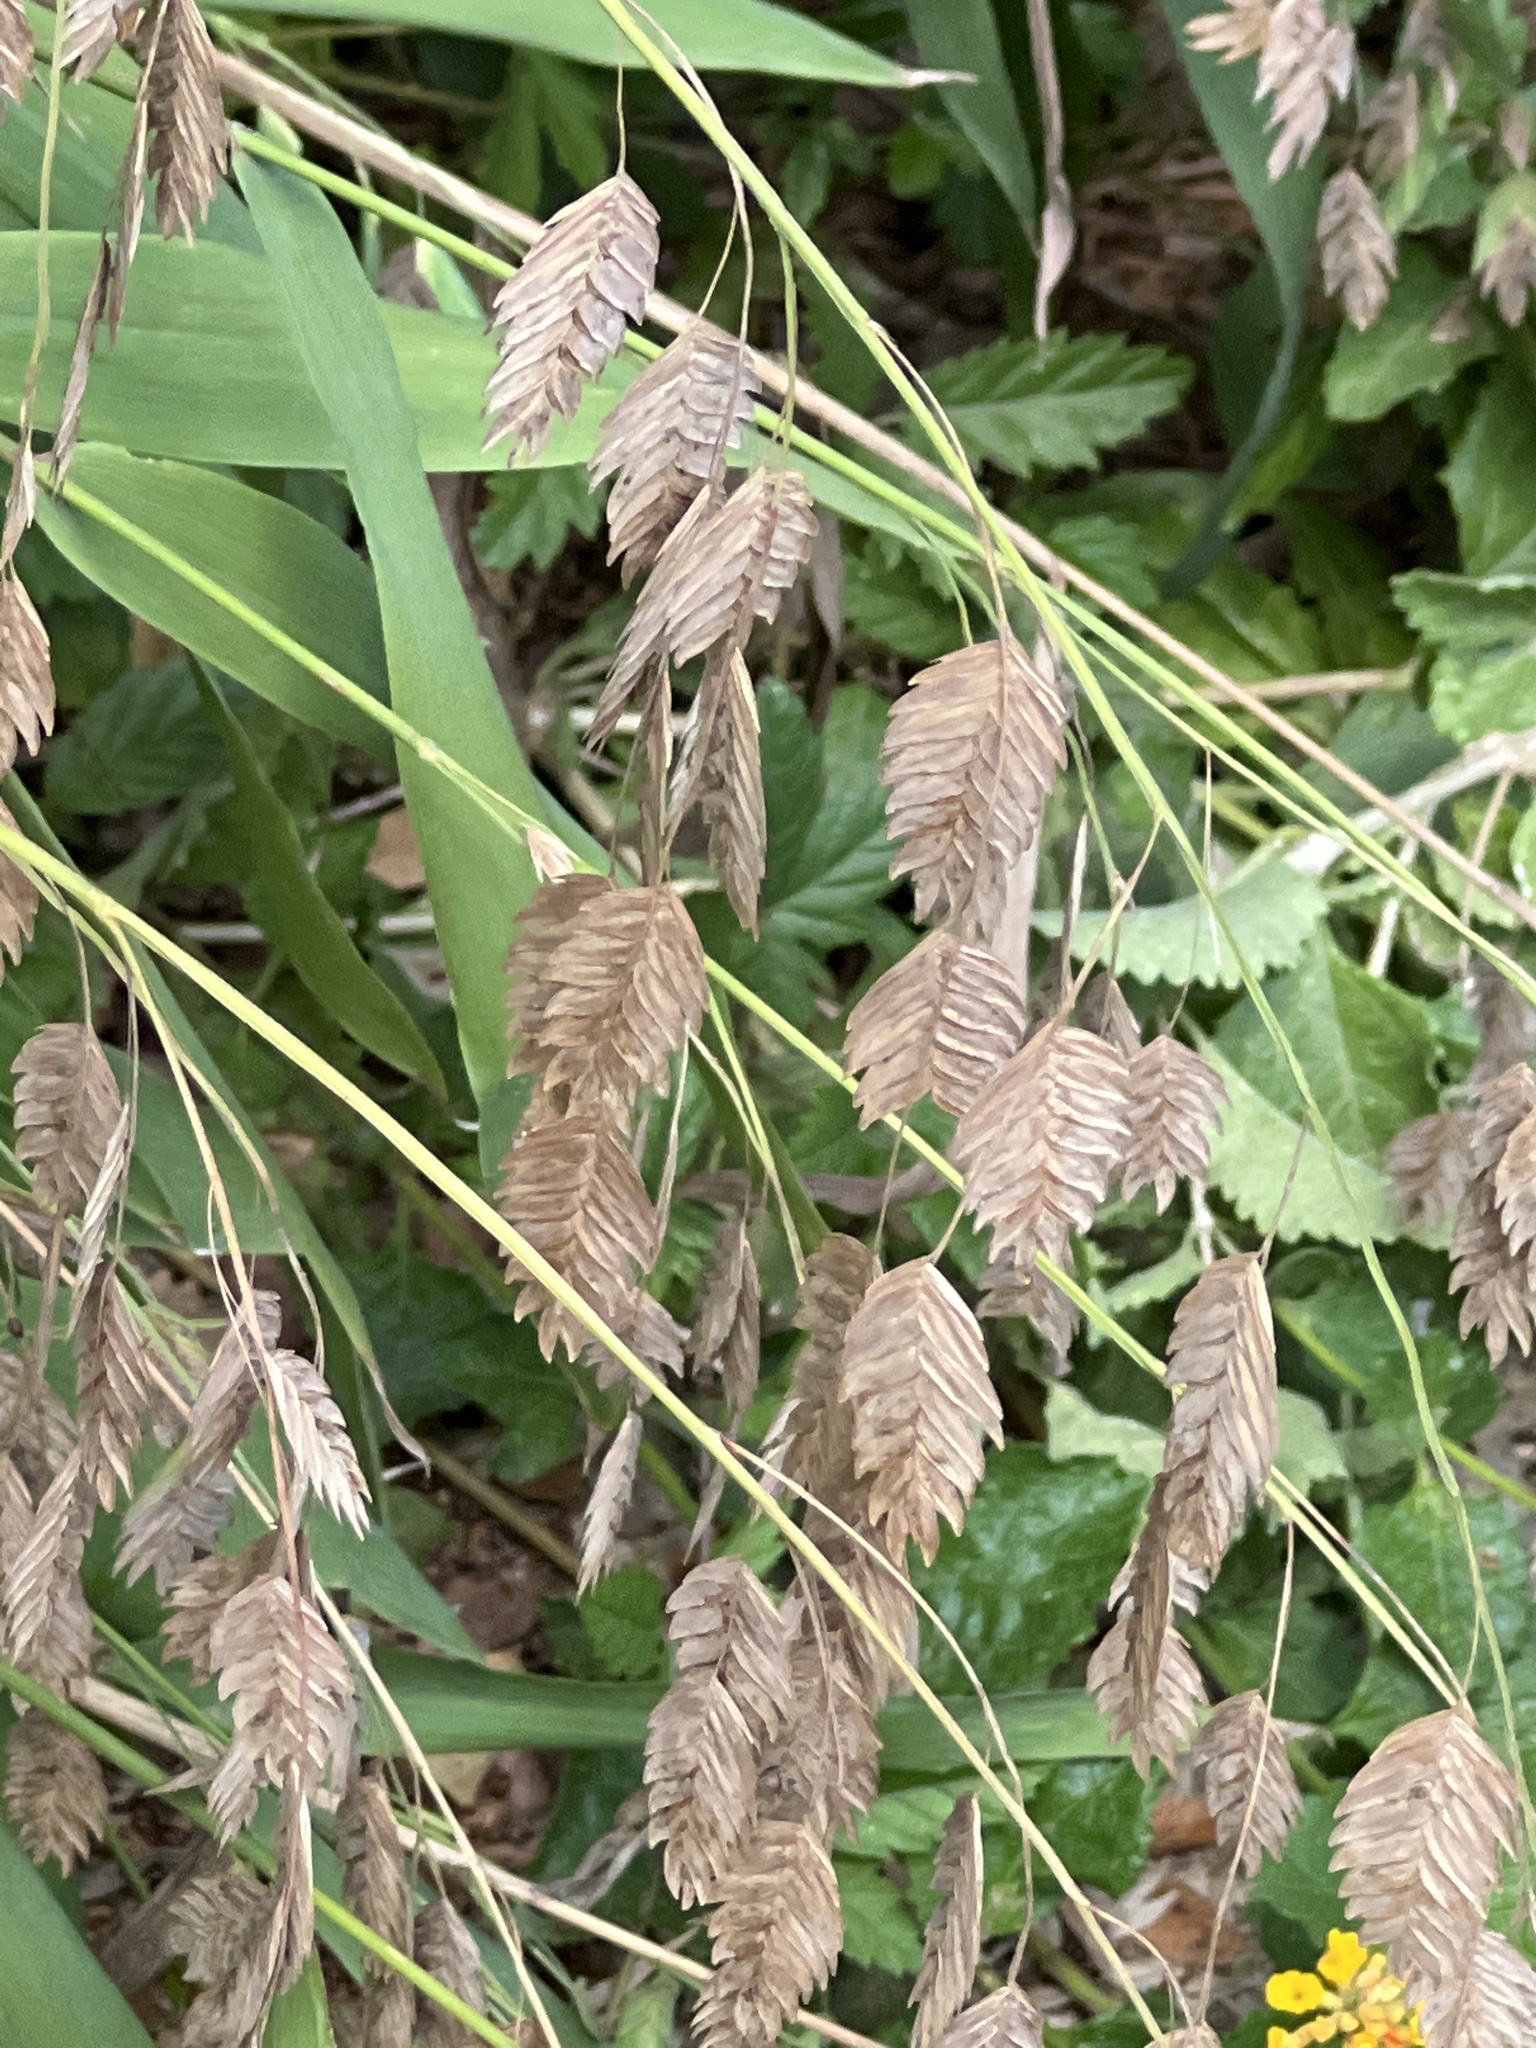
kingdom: Plantae
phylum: Tracheophyta
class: Liliopsida
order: Poales
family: Poaceae
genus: Chasmanthium
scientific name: Chasmanthium latifolium
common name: Broad-leaved chasmanthium
